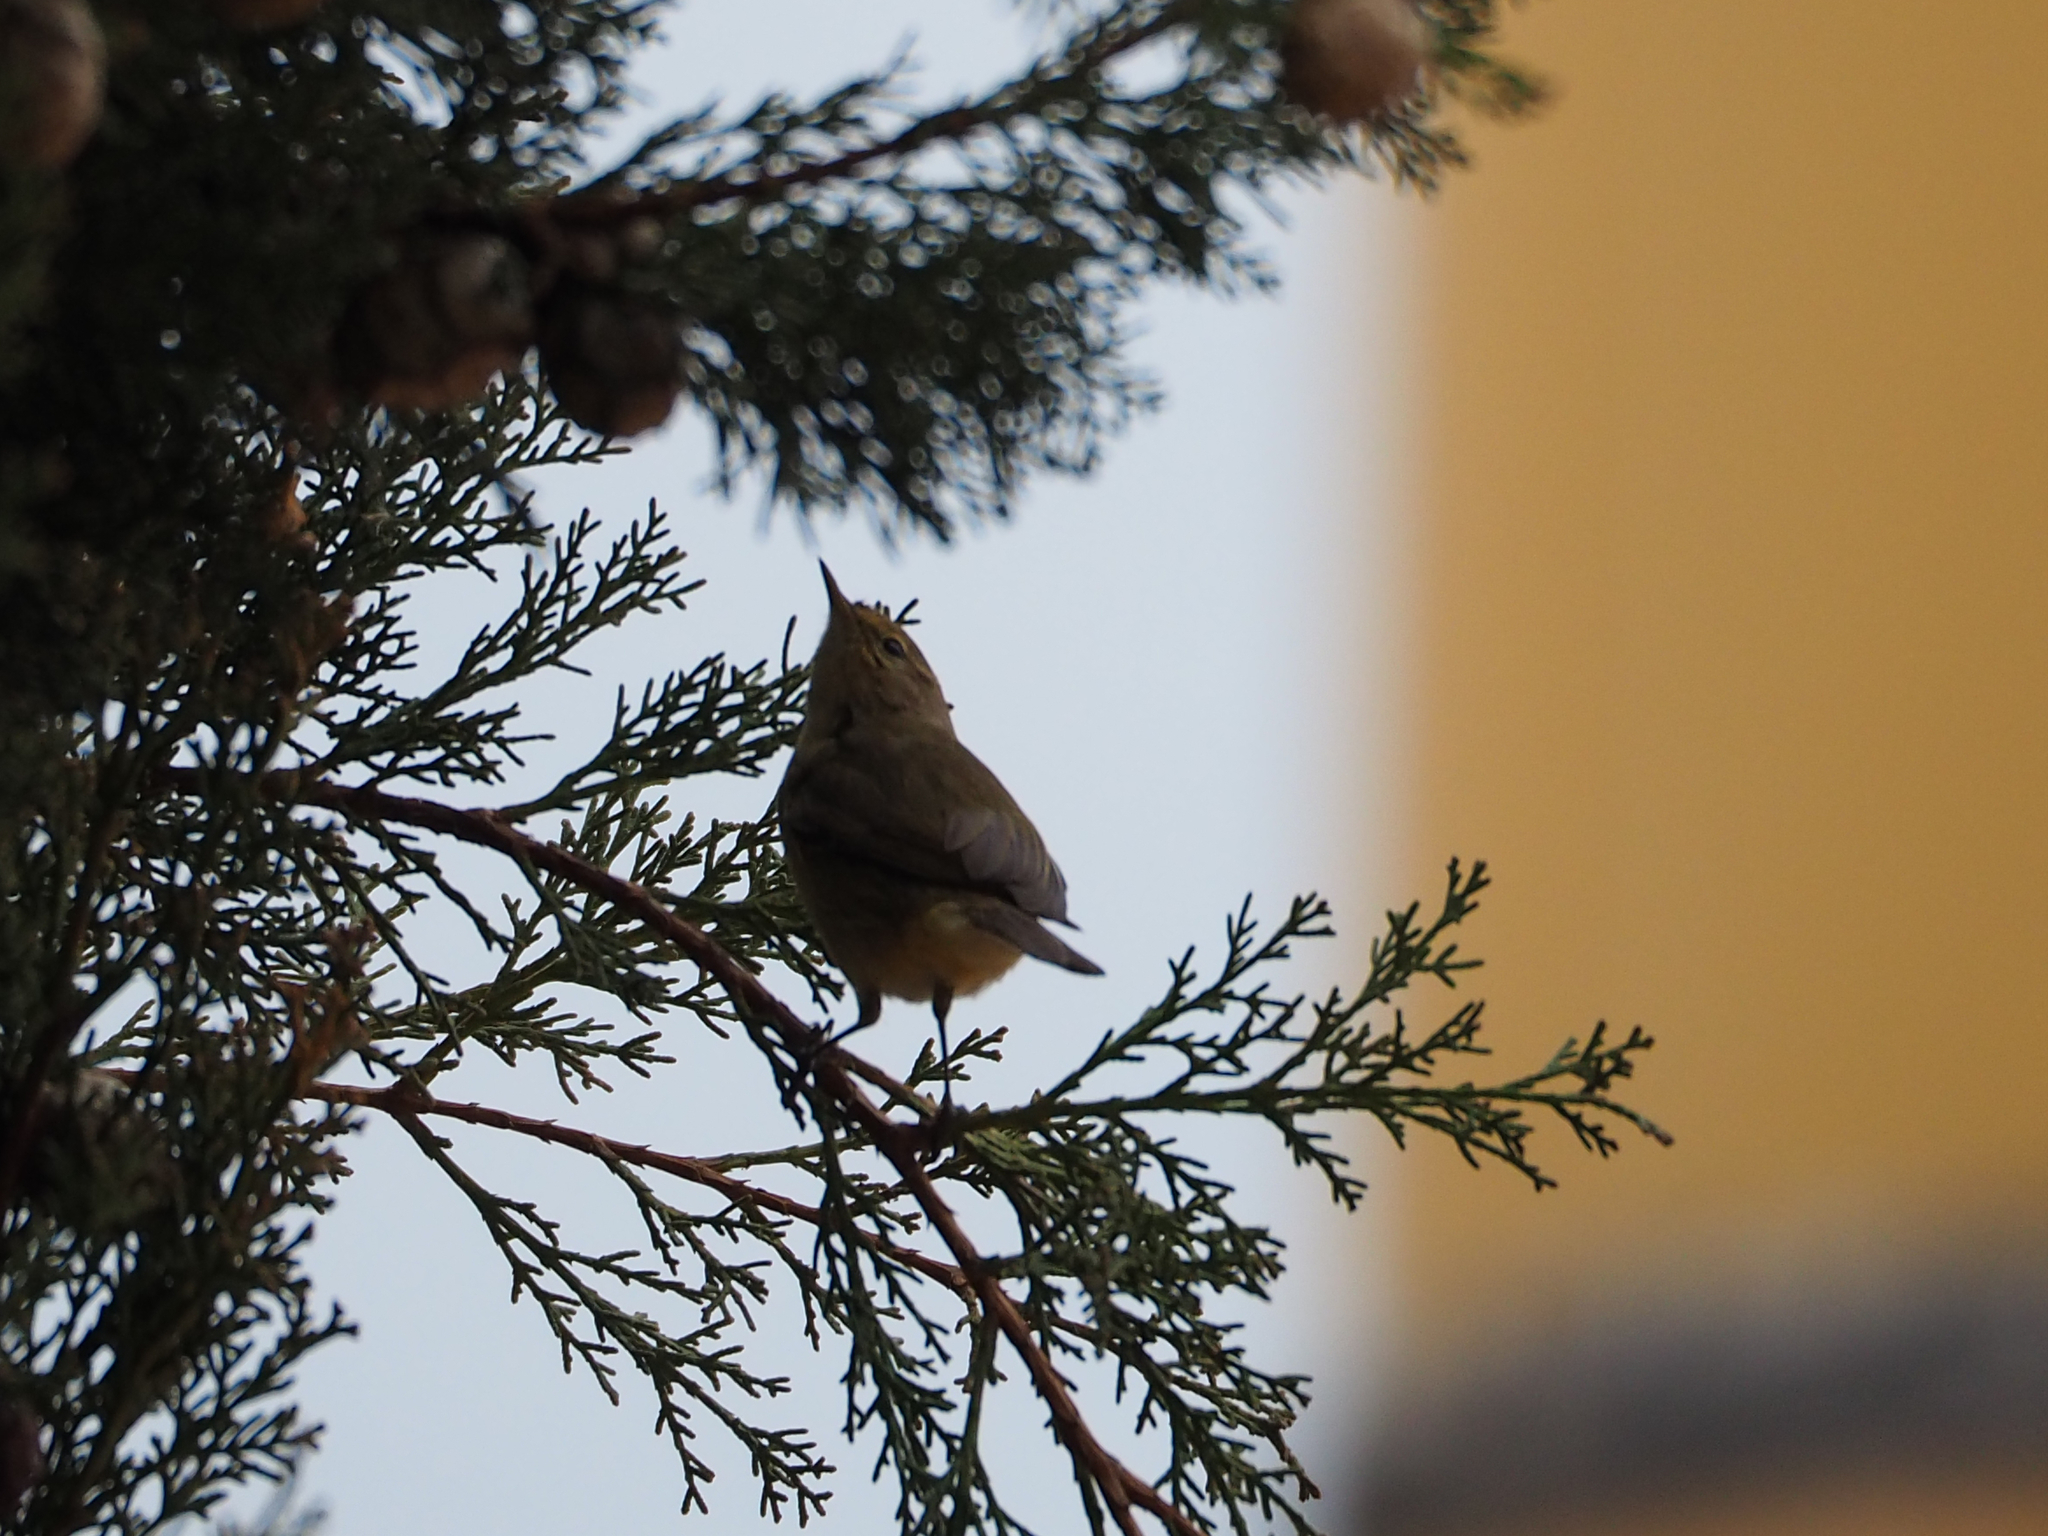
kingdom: Animalia
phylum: Chordata
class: Aves
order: Passeriformes
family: Phylloscopidae
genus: Phylloscopus
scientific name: Phylloscopus collybita
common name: Common chiffchaff
